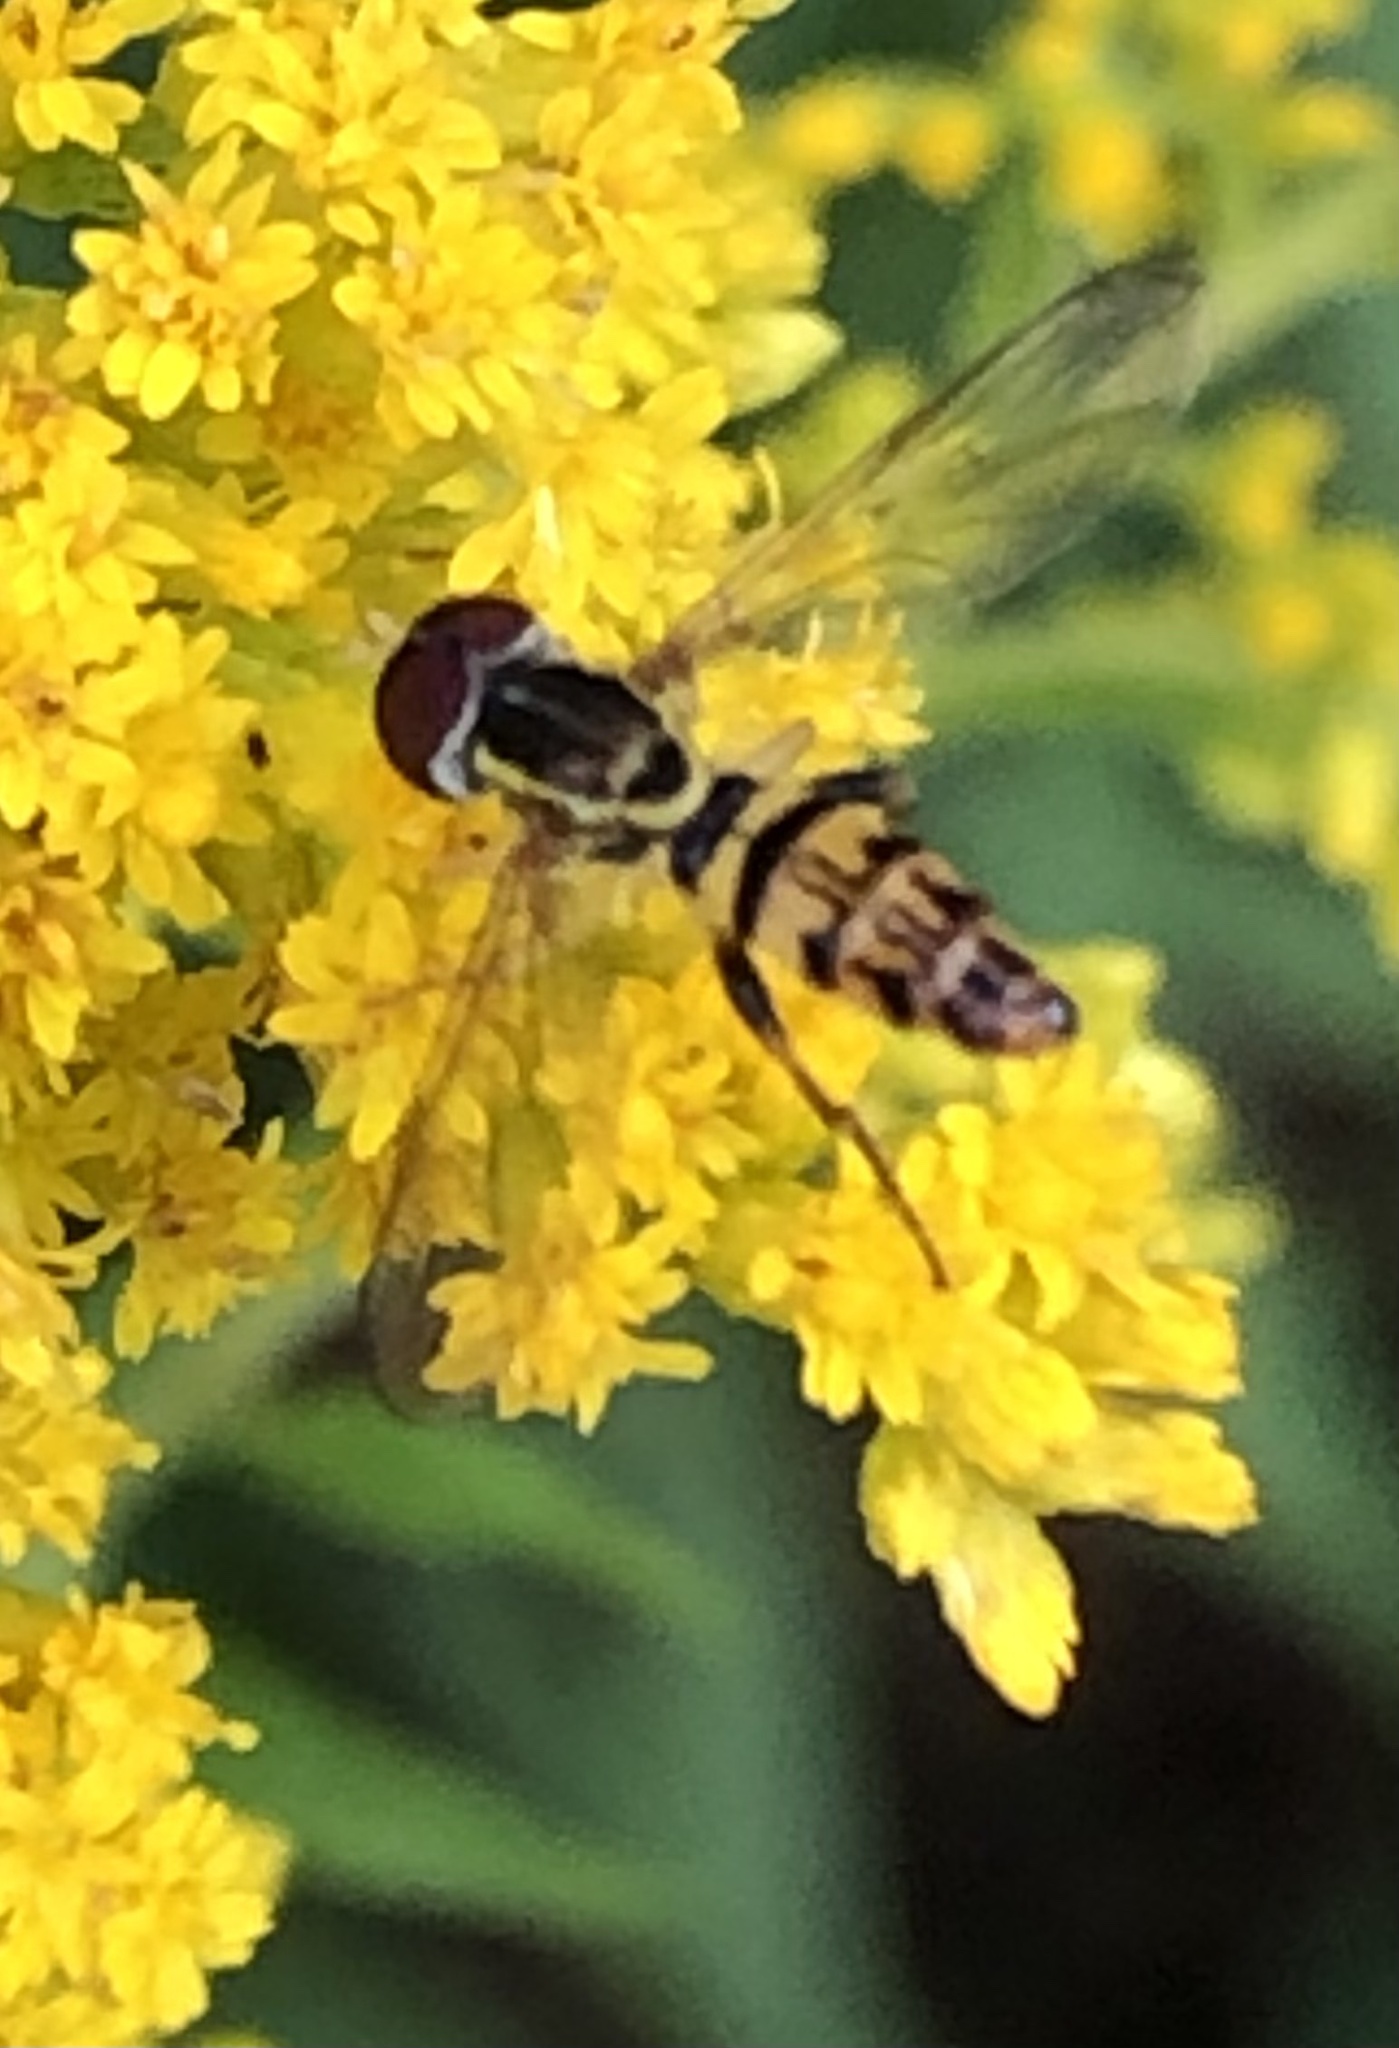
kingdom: Animalia
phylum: Arthropoda
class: Insecta
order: Diptera
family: Syrphidae
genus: Toxomerus
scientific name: Toxomerus geminatus
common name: Eastern calligrapher
